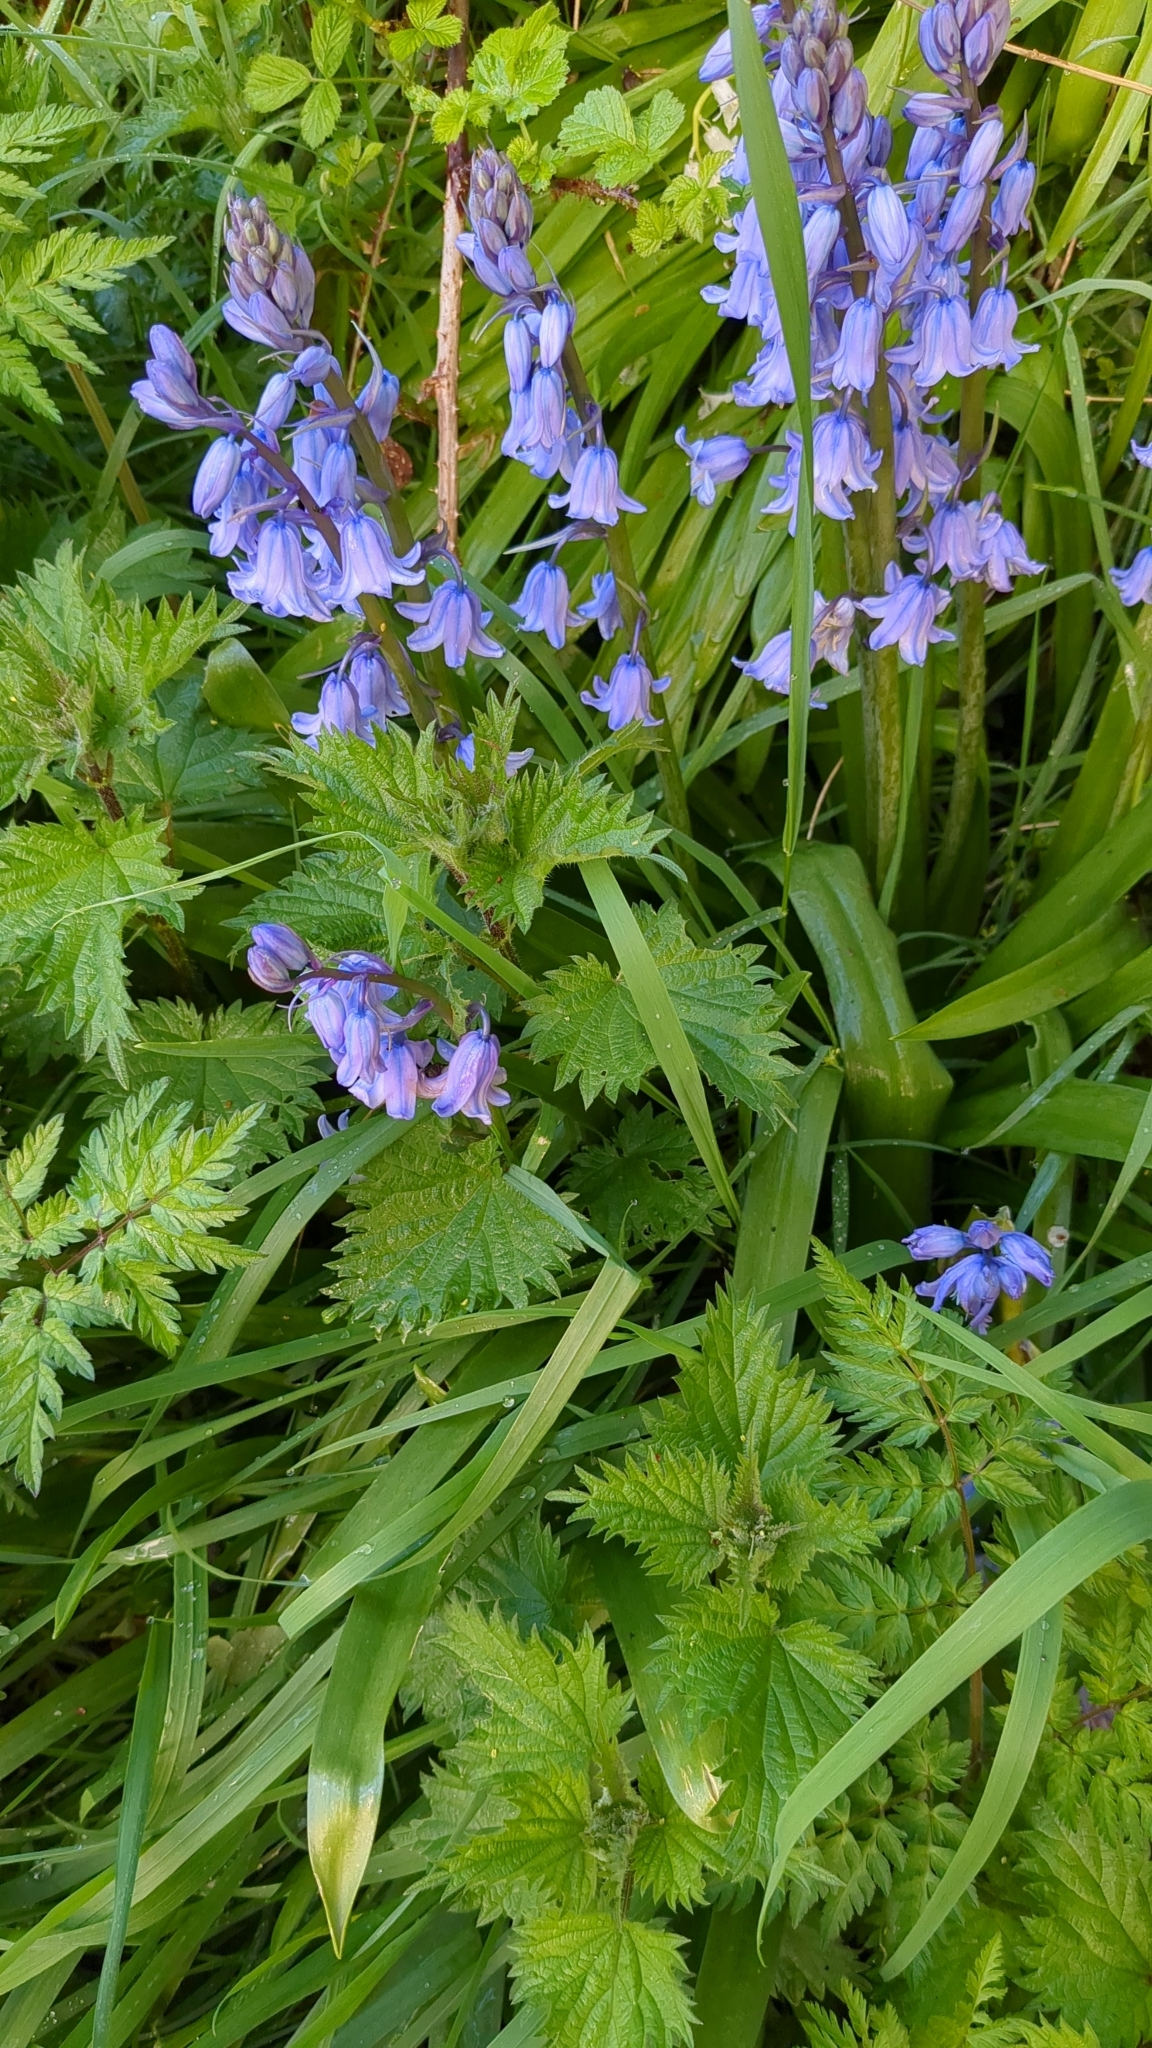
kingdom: Plantae
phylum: Tracheophyta
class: Liliopsida
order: Asparagales
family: Asparagaceae
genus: Hyacinthoides
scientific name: Hyacinthoides massartiana
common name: Hyacinthoides
